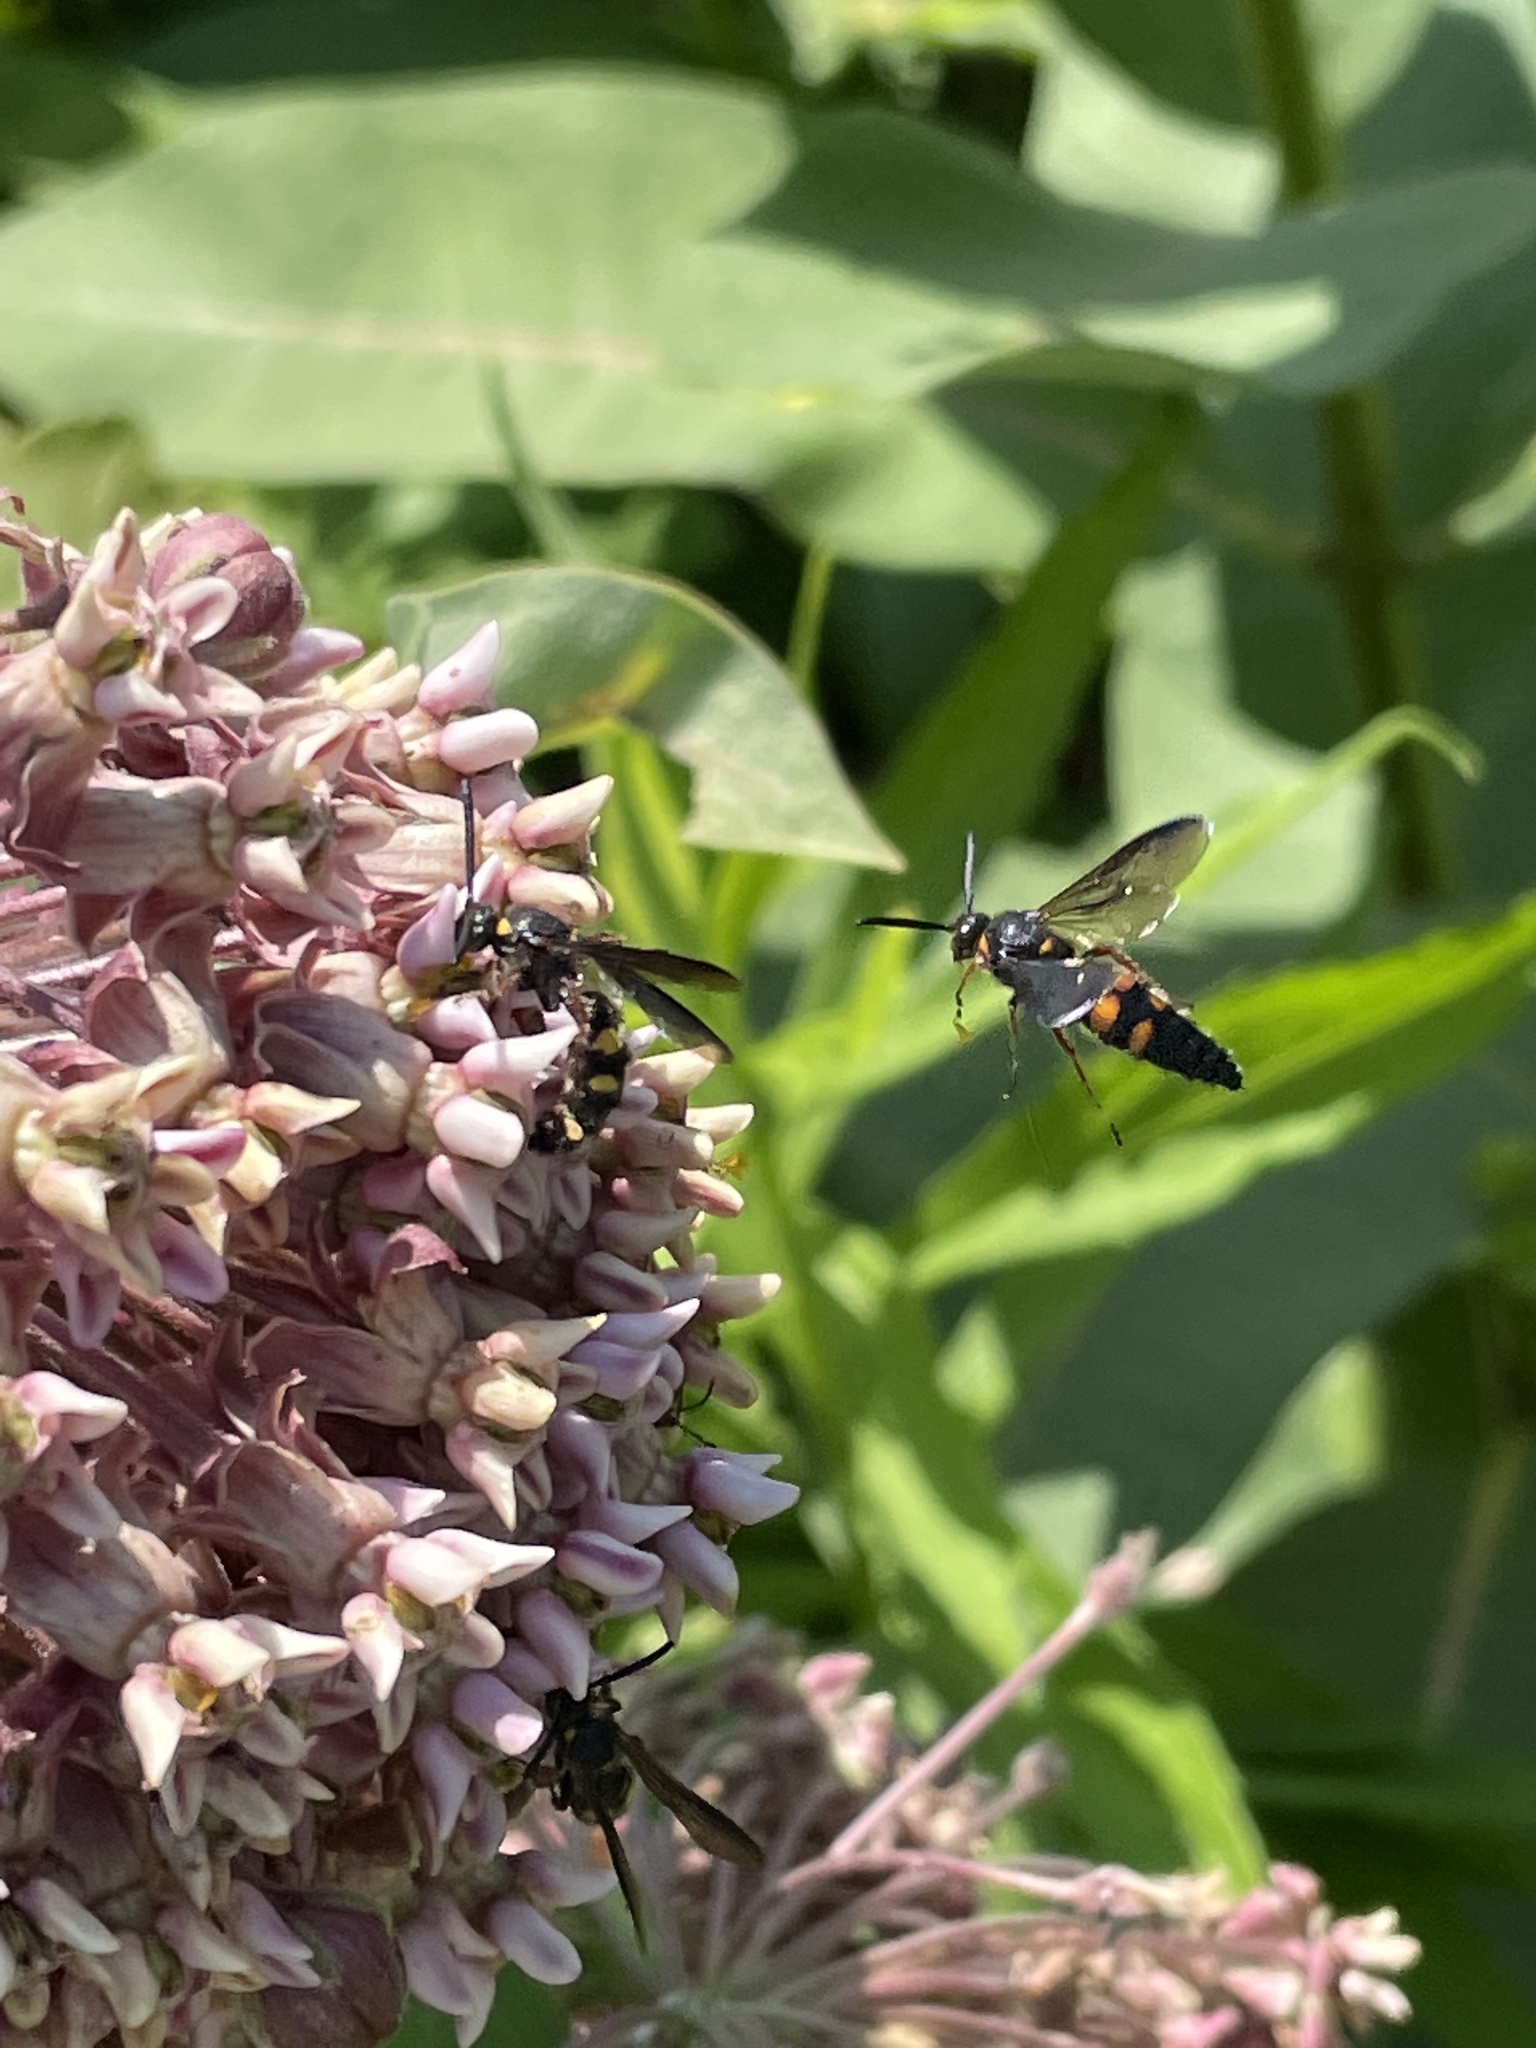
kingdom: Animalia
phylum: Arthropoda
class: Insecta
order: Hymenoptera
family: Scoliidae
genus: Scolia
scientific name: Scolia nobilitata
